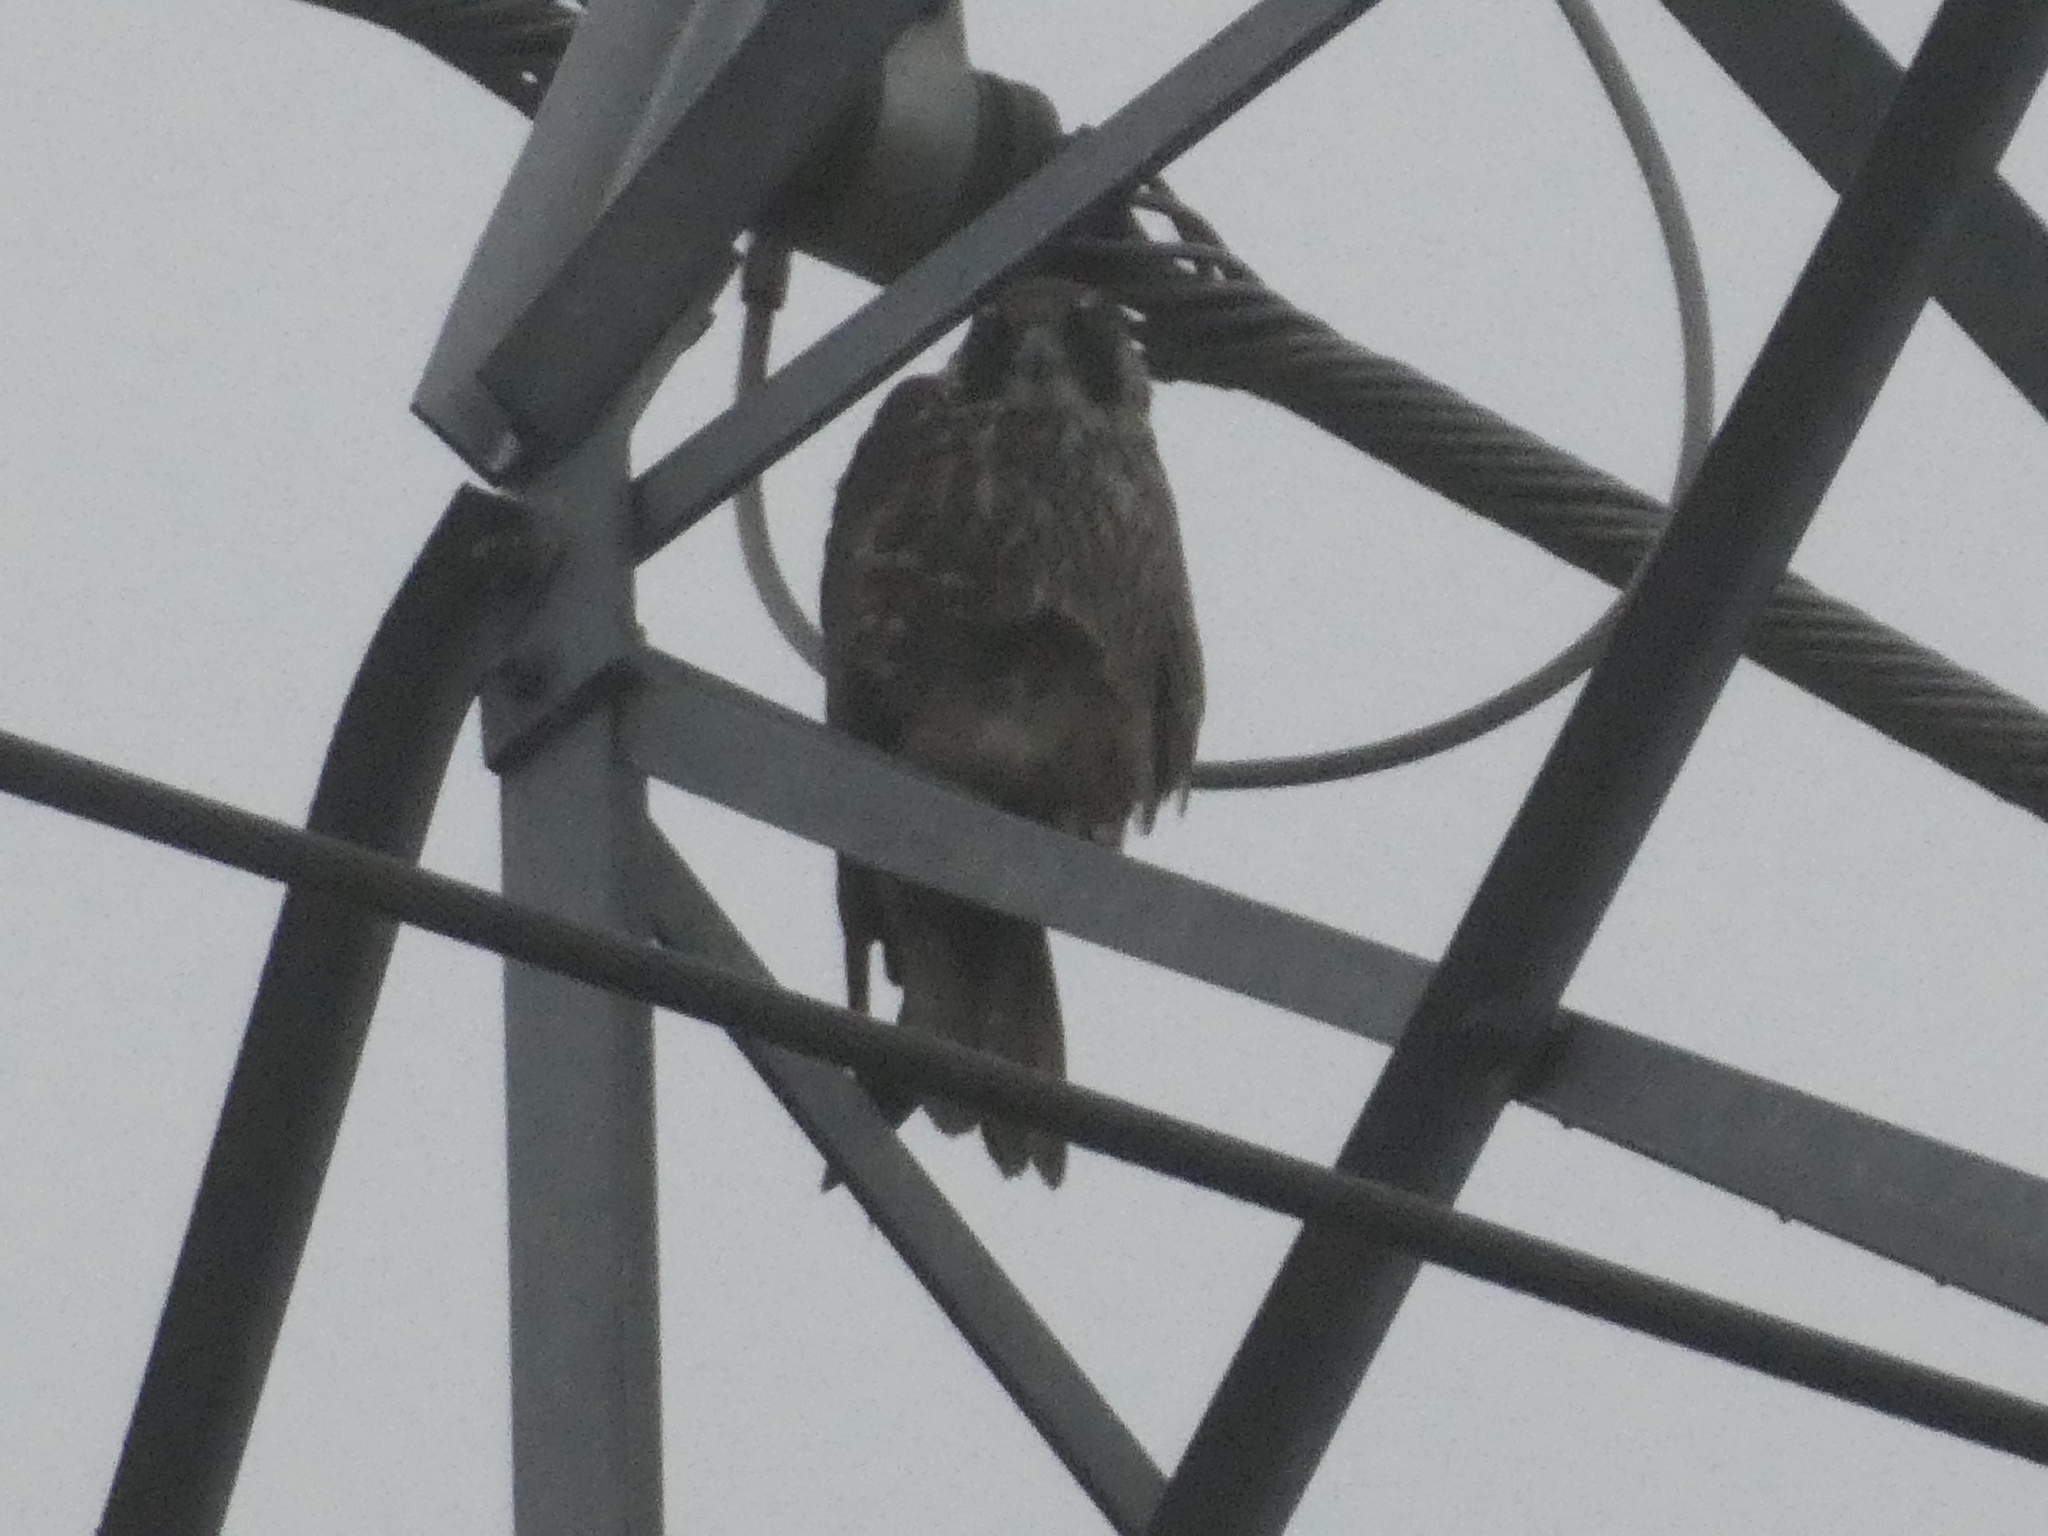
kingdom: Animalia
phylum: Chordata
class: Aves
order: Falconiformes
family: Falconidae
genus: Falco
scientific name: Falco peregrinus
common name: Peregrine falcon
